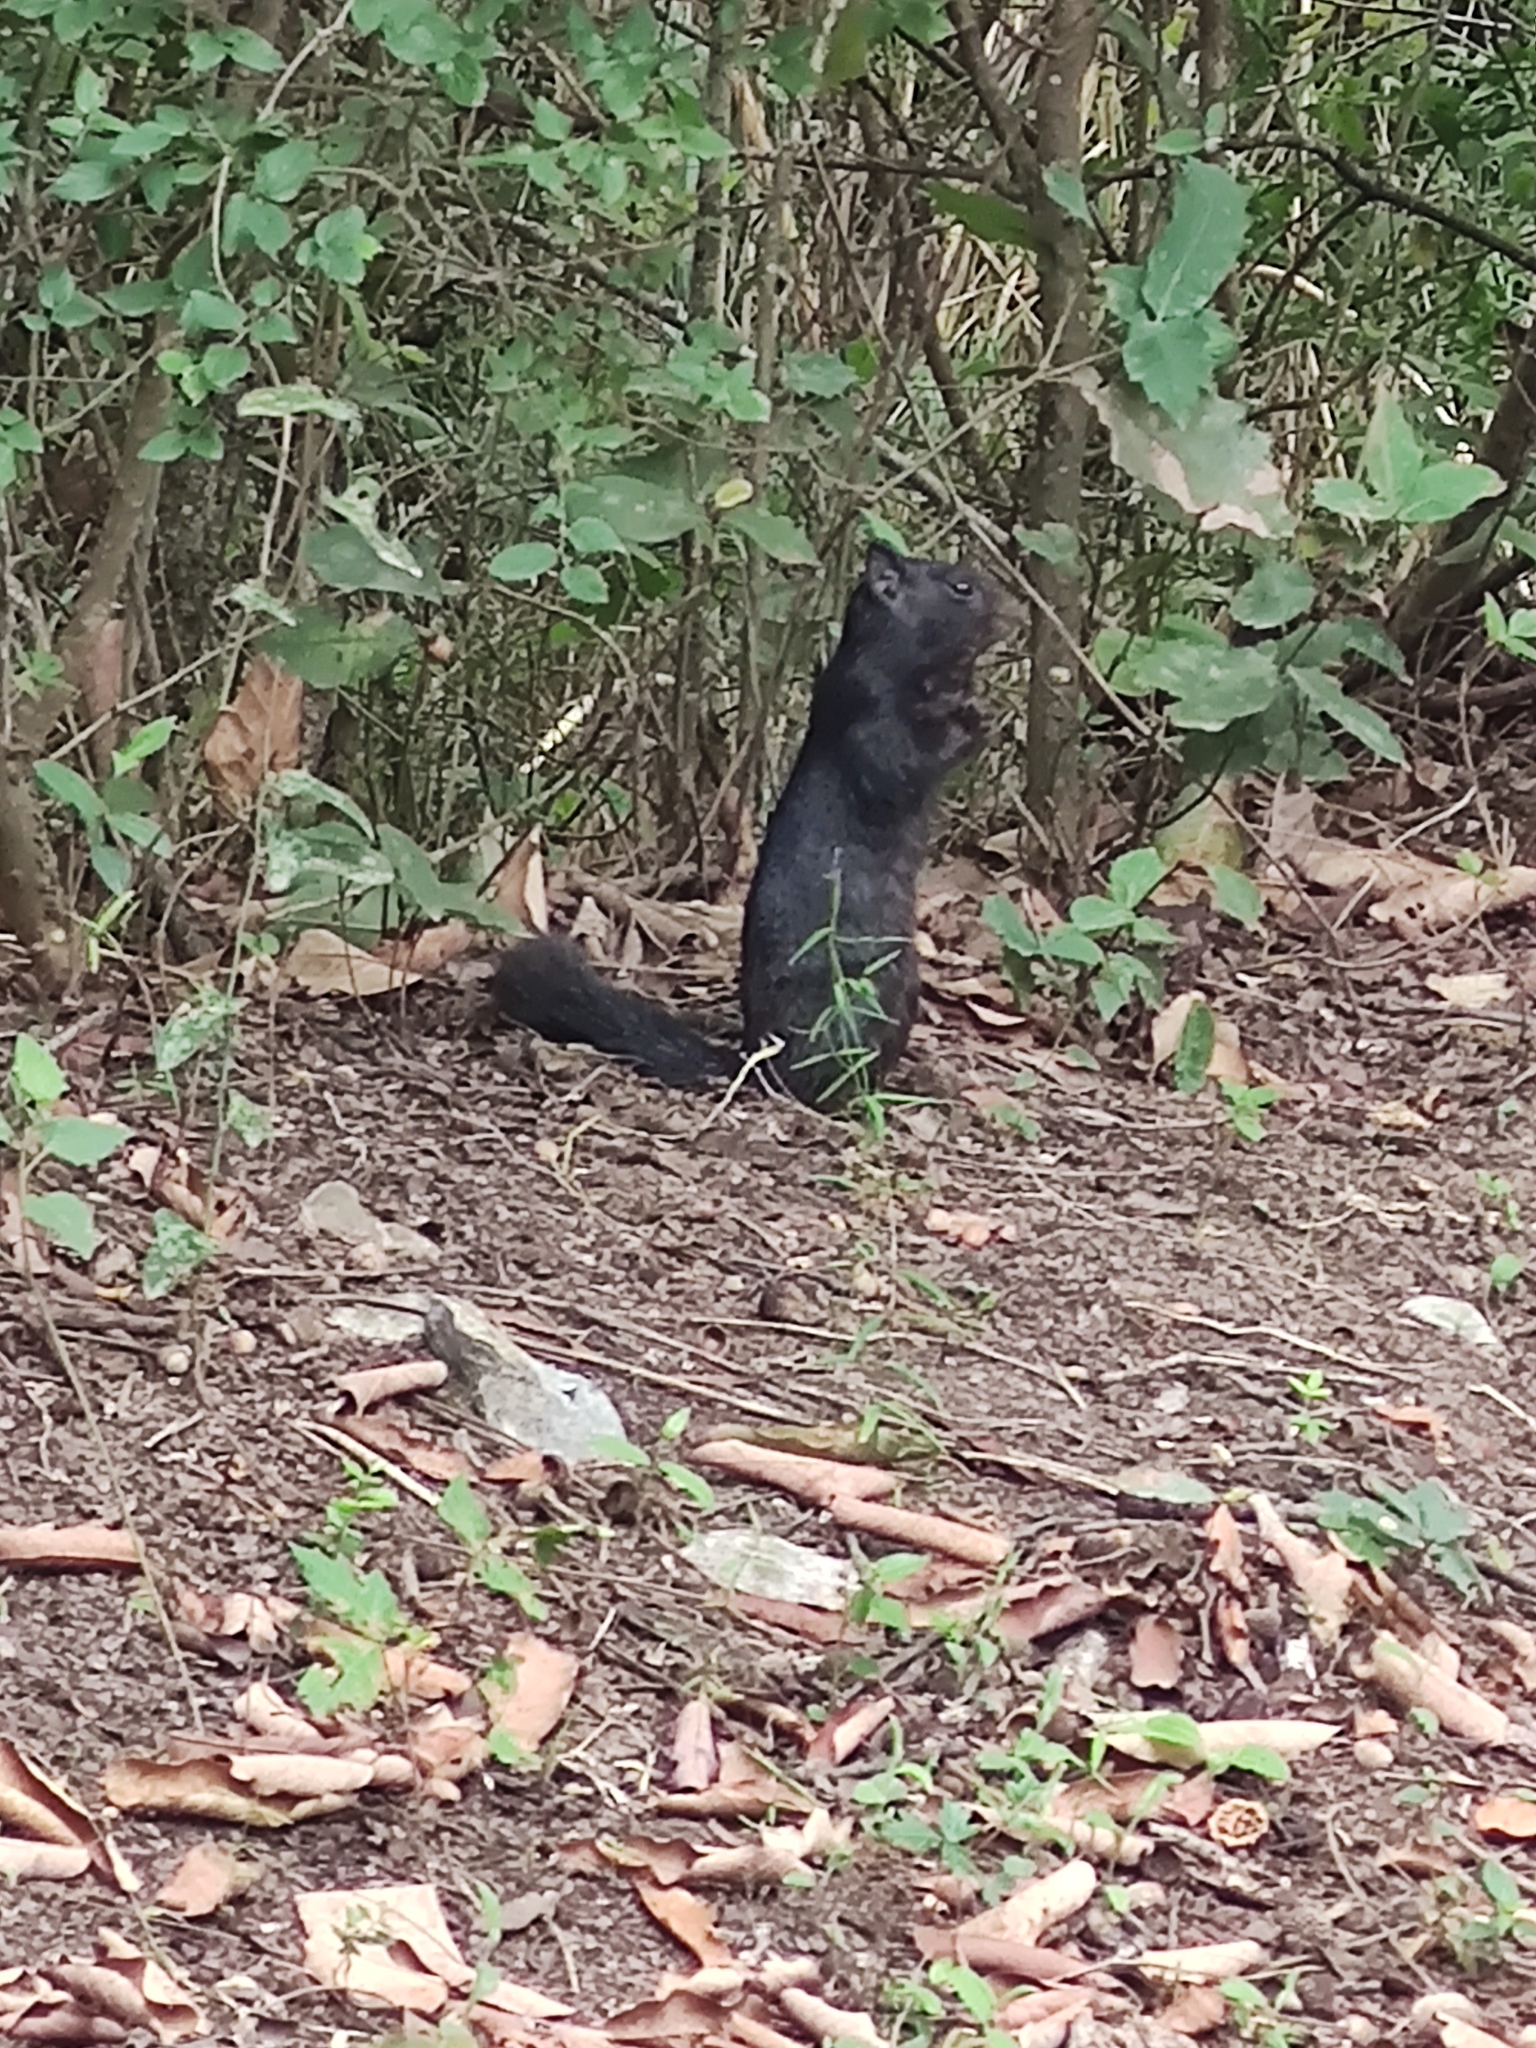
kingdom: Animalia
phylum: Chordata
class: Mammalia
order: Rodentia
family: Sciuridae
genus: Otospermophilus
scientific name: Otospermophilus variegatus
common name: Rock squirrel
